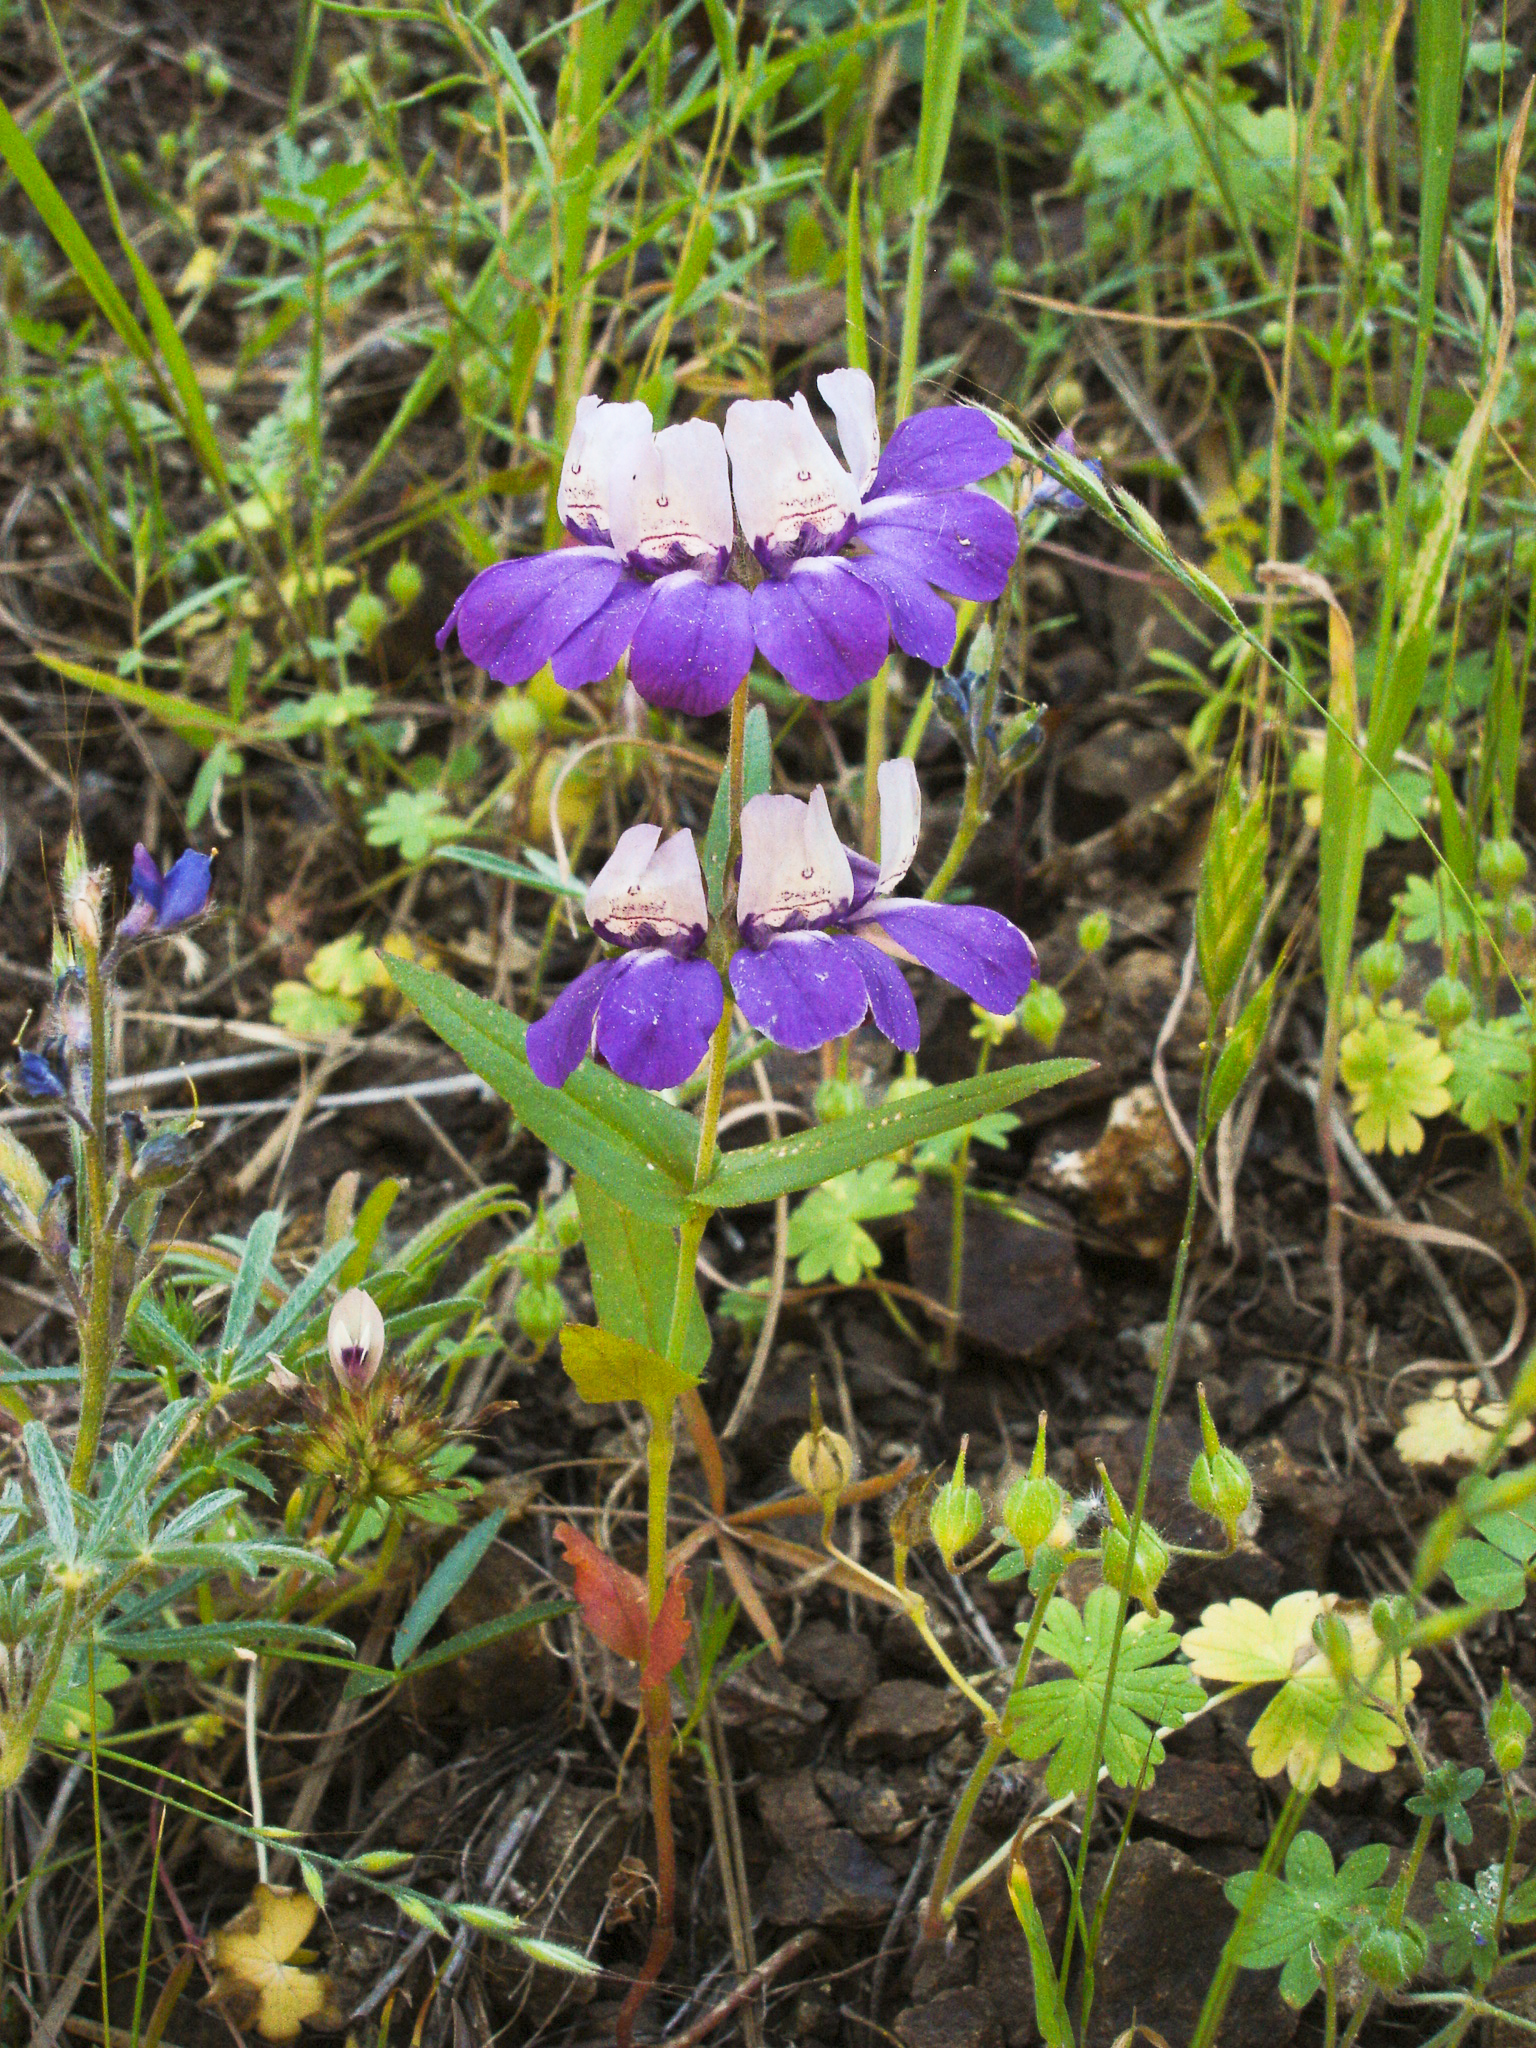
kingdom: Plantae
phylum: Tracheophyta
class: Magnoliopsida
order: Lamiales
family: Plantaginaceae
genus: Collinsia
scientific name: Collinsia heterophylla
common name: Chinese-houses
